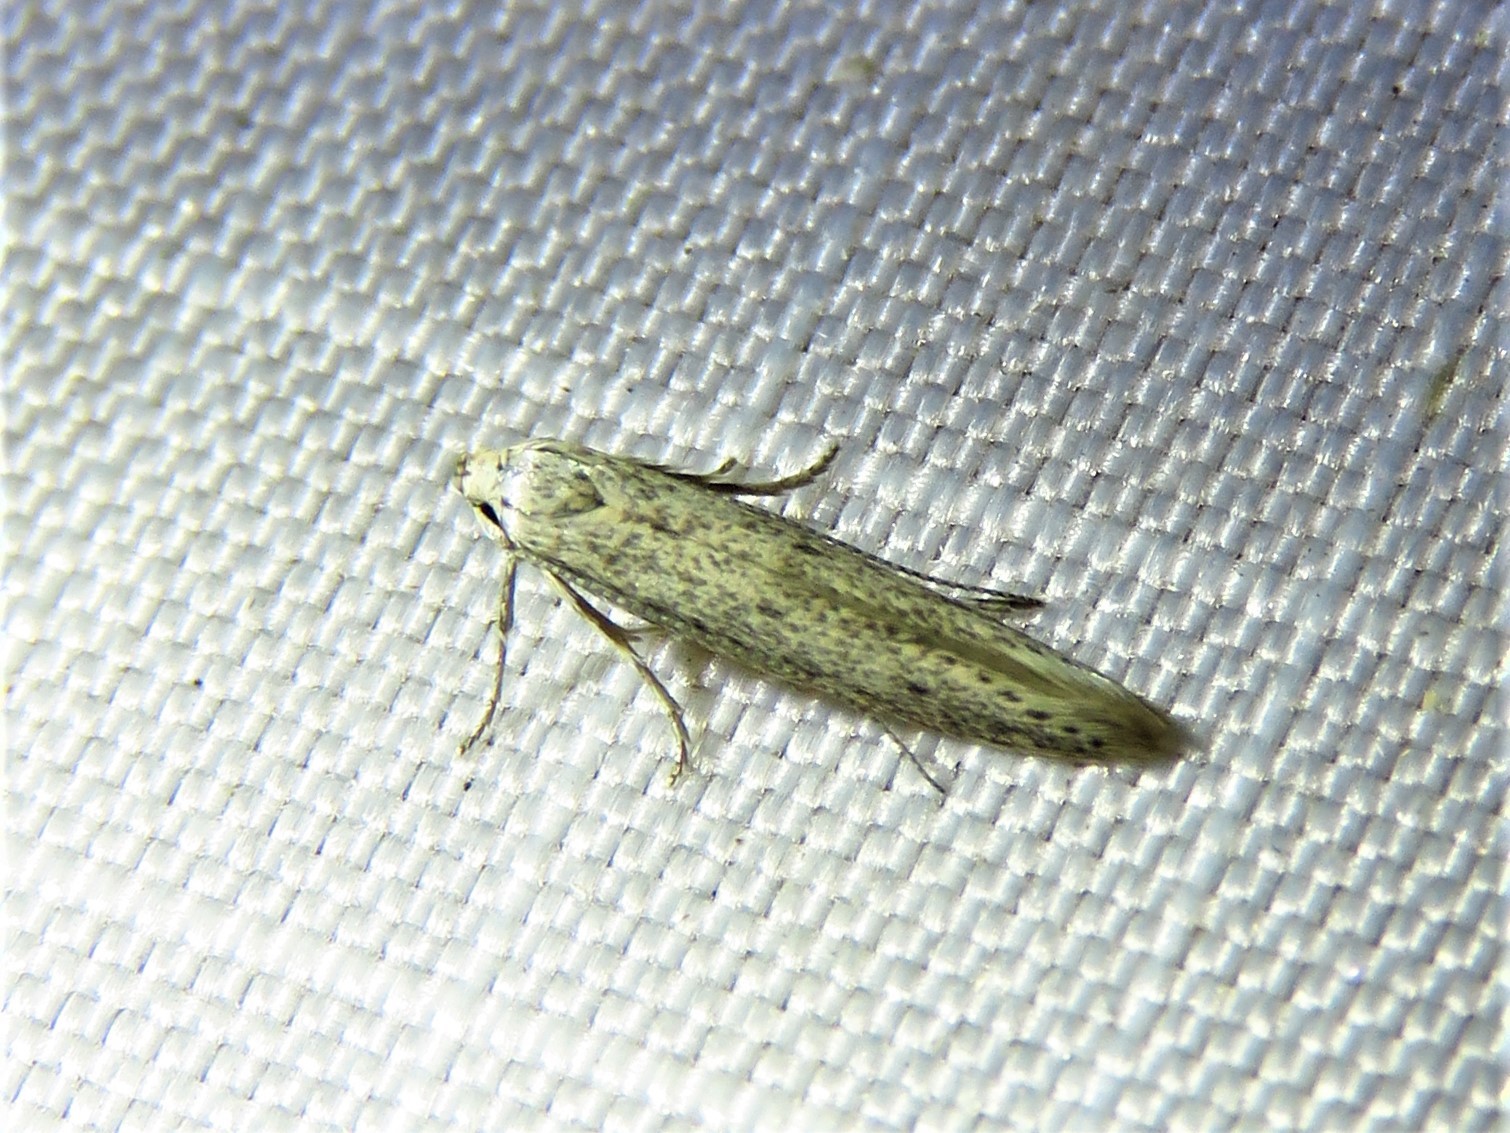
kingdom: Animalia
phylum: Arthropoda
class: Insecta
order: Lepidoptera
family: Elachistidae
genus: Haplochrois
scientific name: Haplochrois bipunctella
